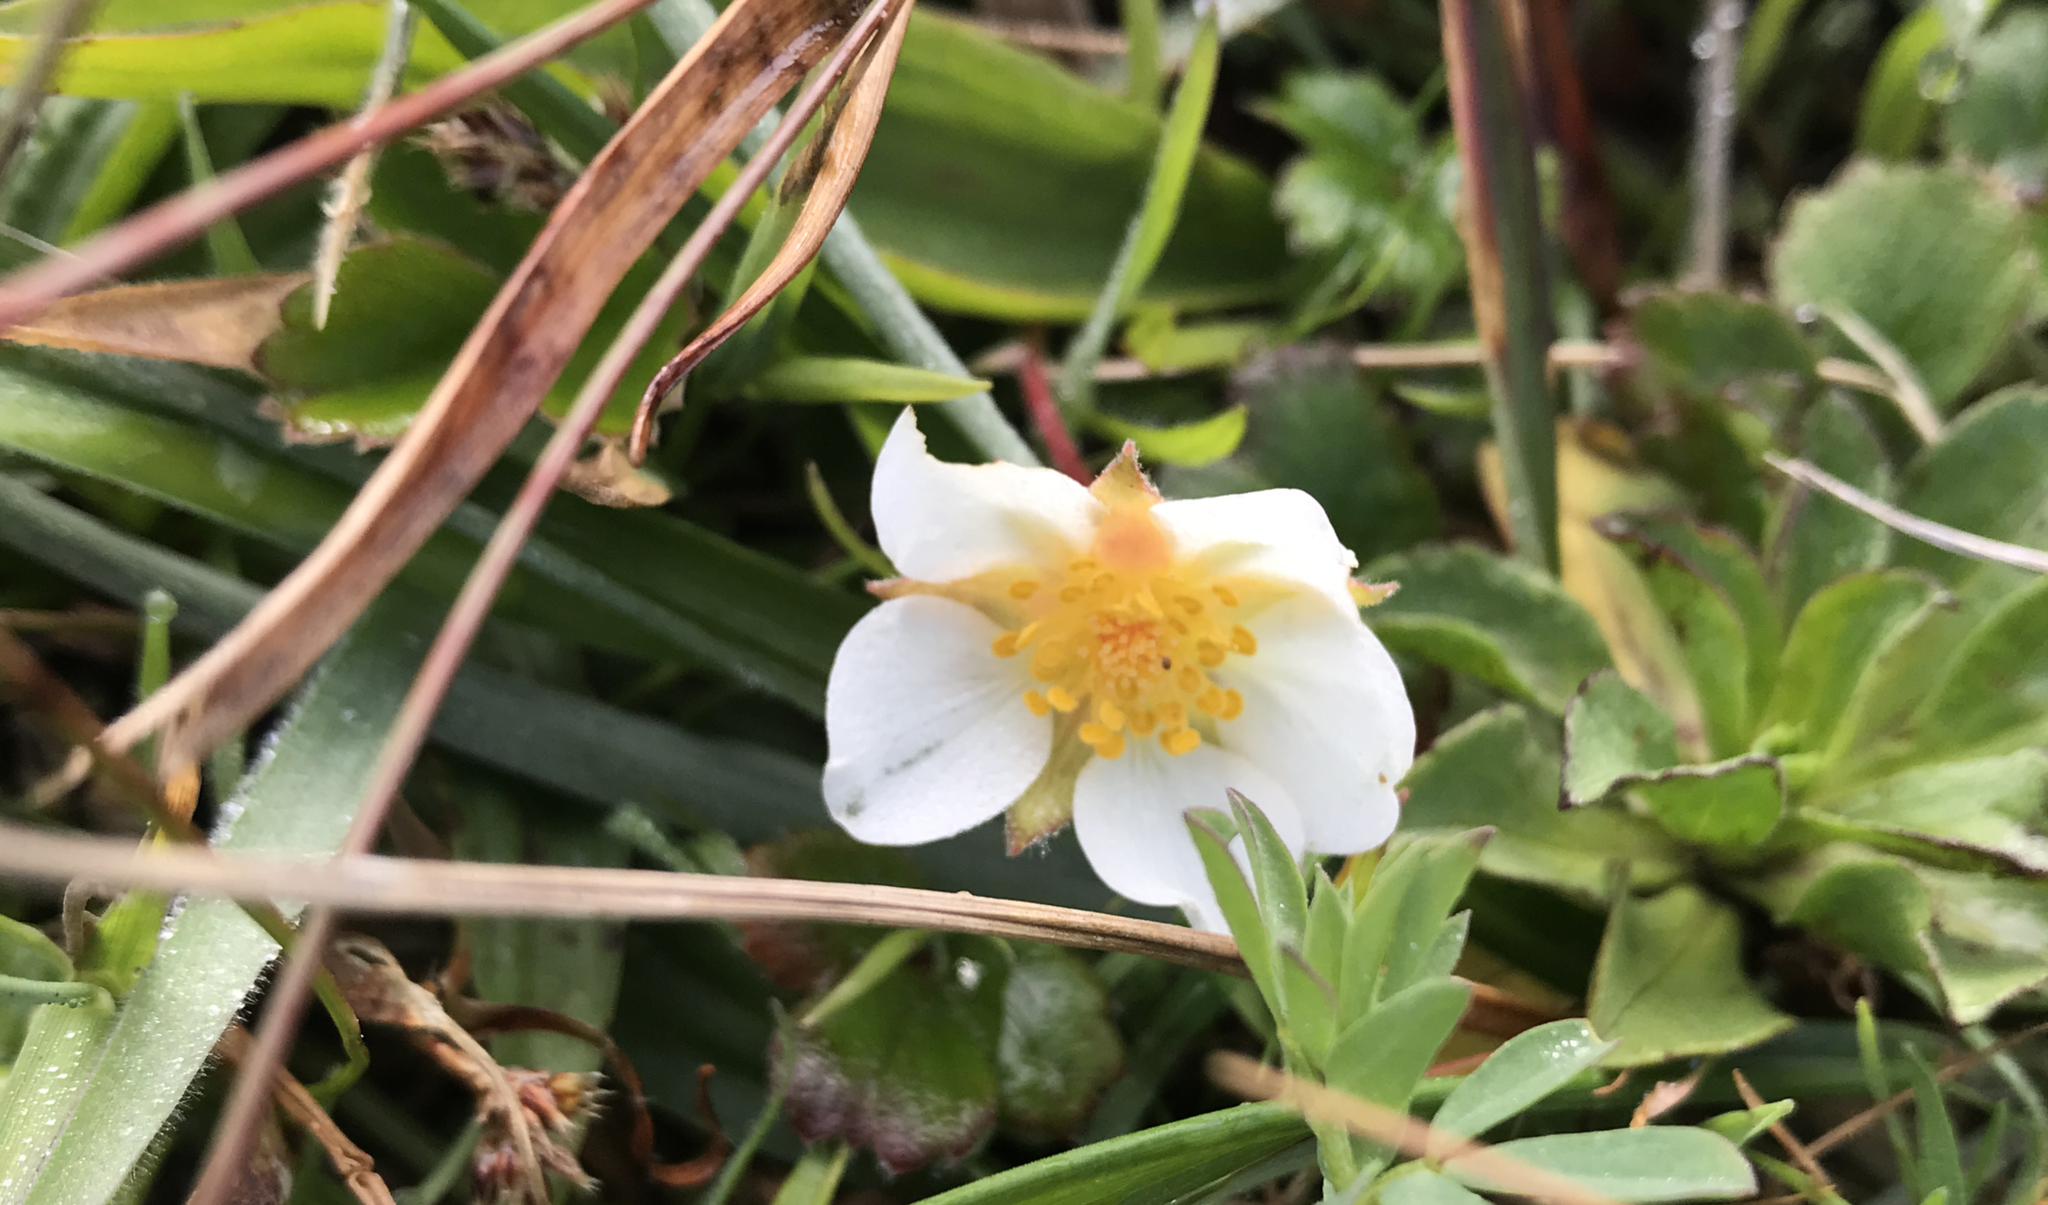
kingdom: Plantae
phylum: Tracheophyta
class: Magnoliopsida
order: Rosales
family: Rosaceae
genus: Fragaria
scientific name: Fragaria chiloensis
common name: Beach strawberry
